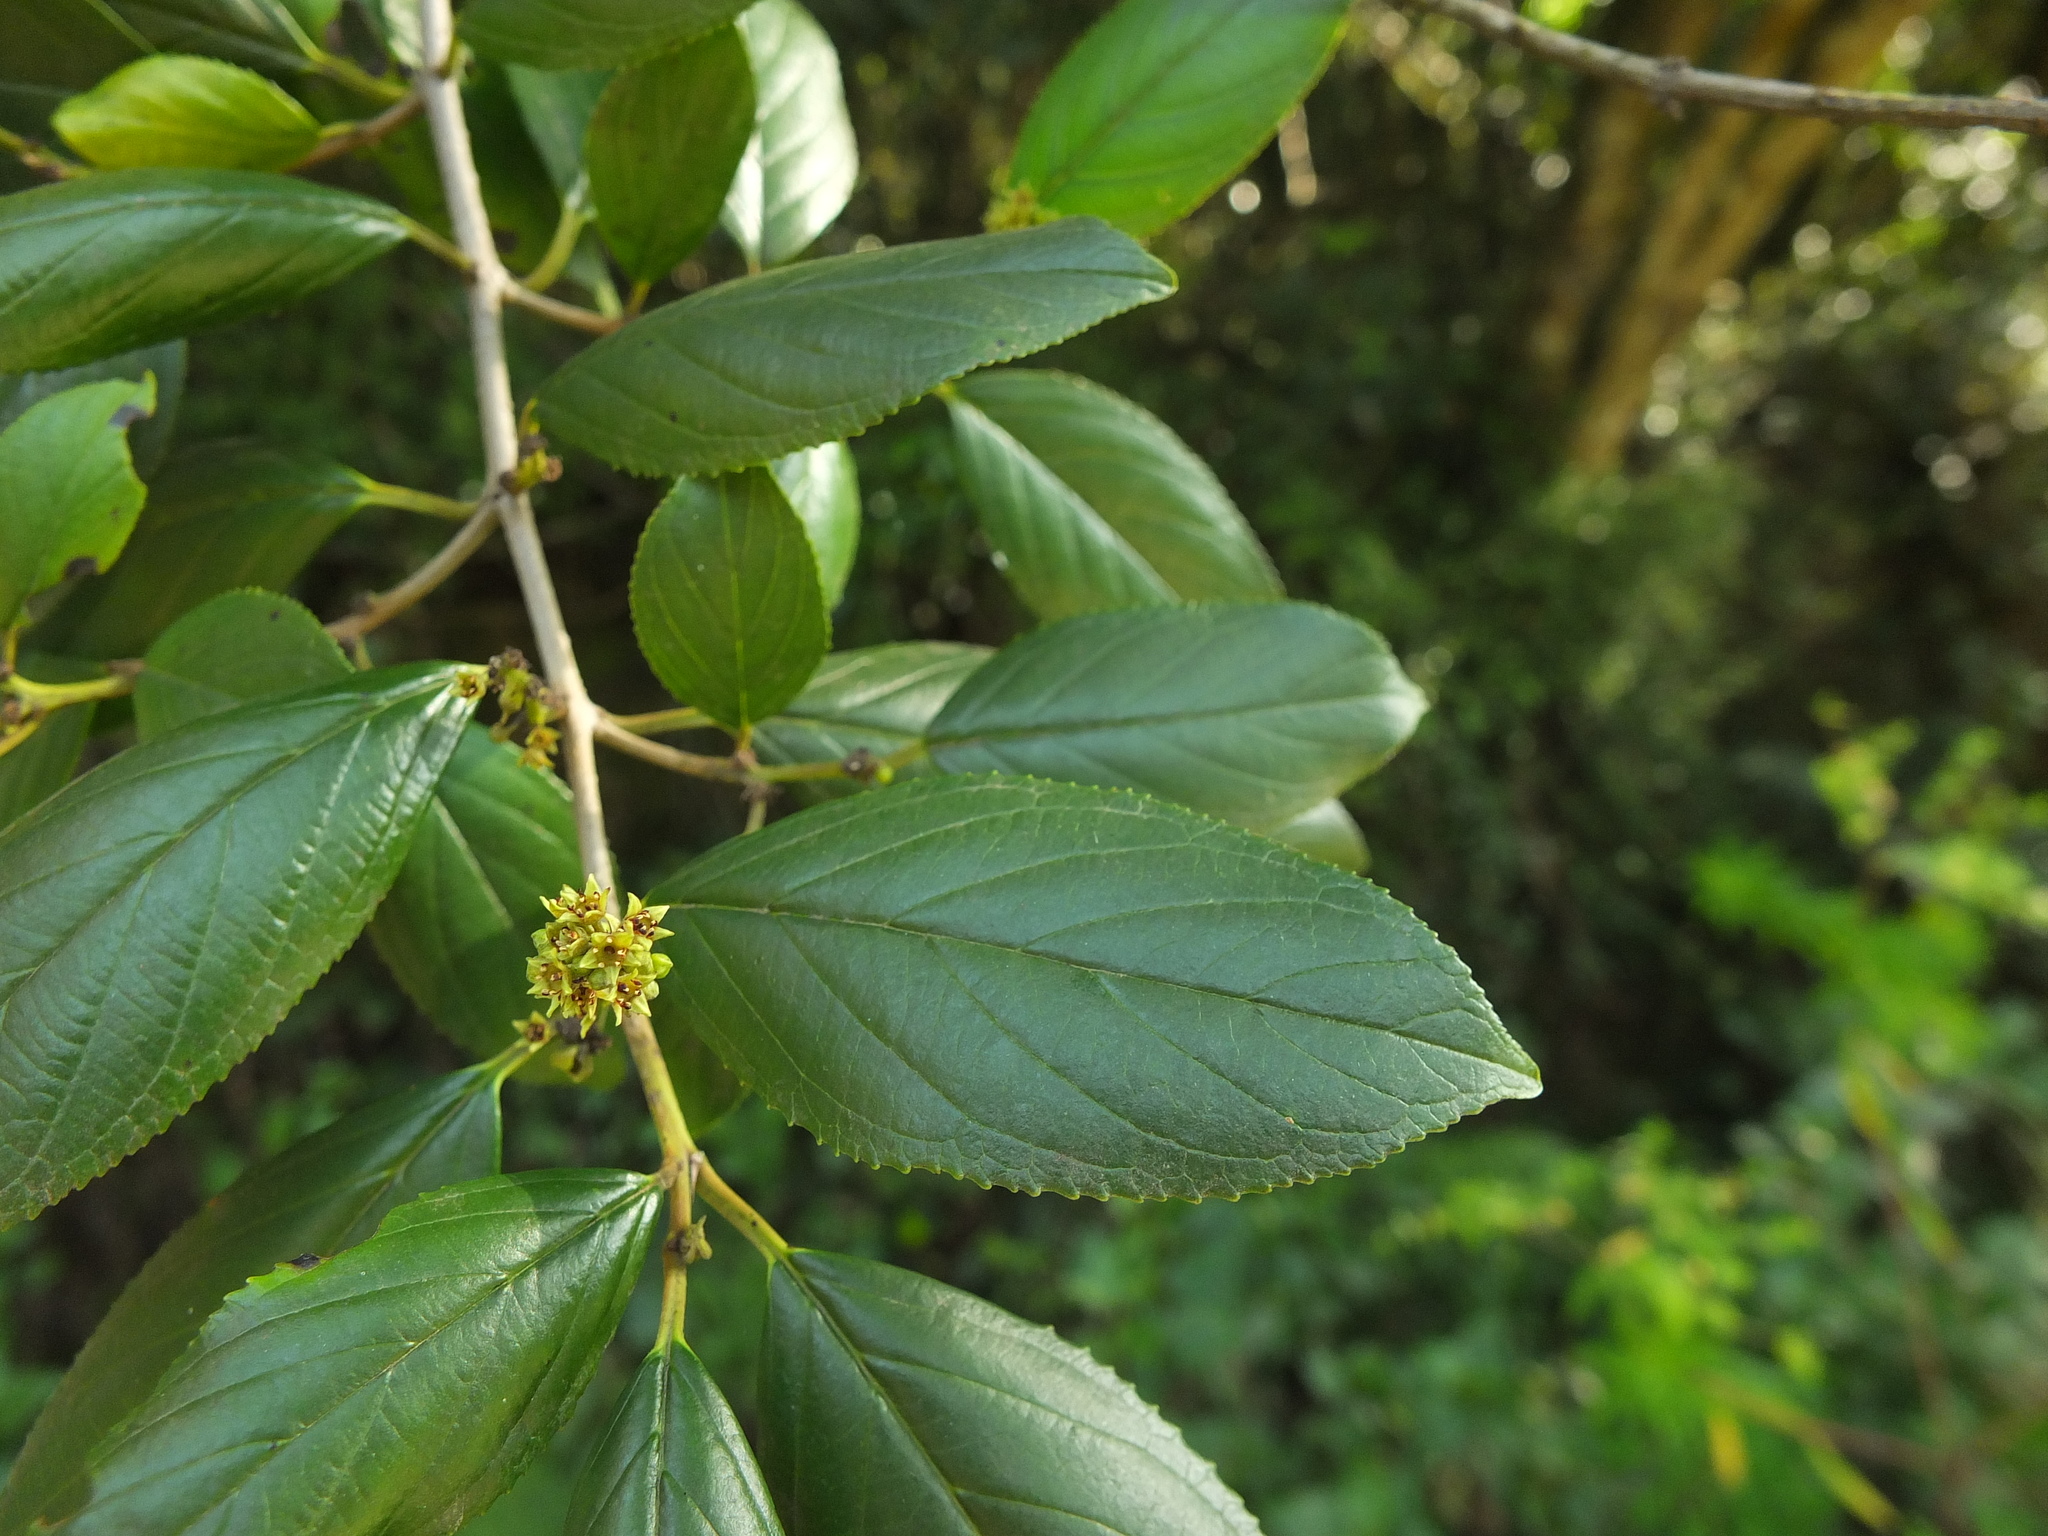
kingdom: Plantae
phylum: Tracheophyta
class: Magnoliopsida
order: Rosales
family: Rhamnaceae
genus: Rhamnus
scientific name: Rhamnus wightii
